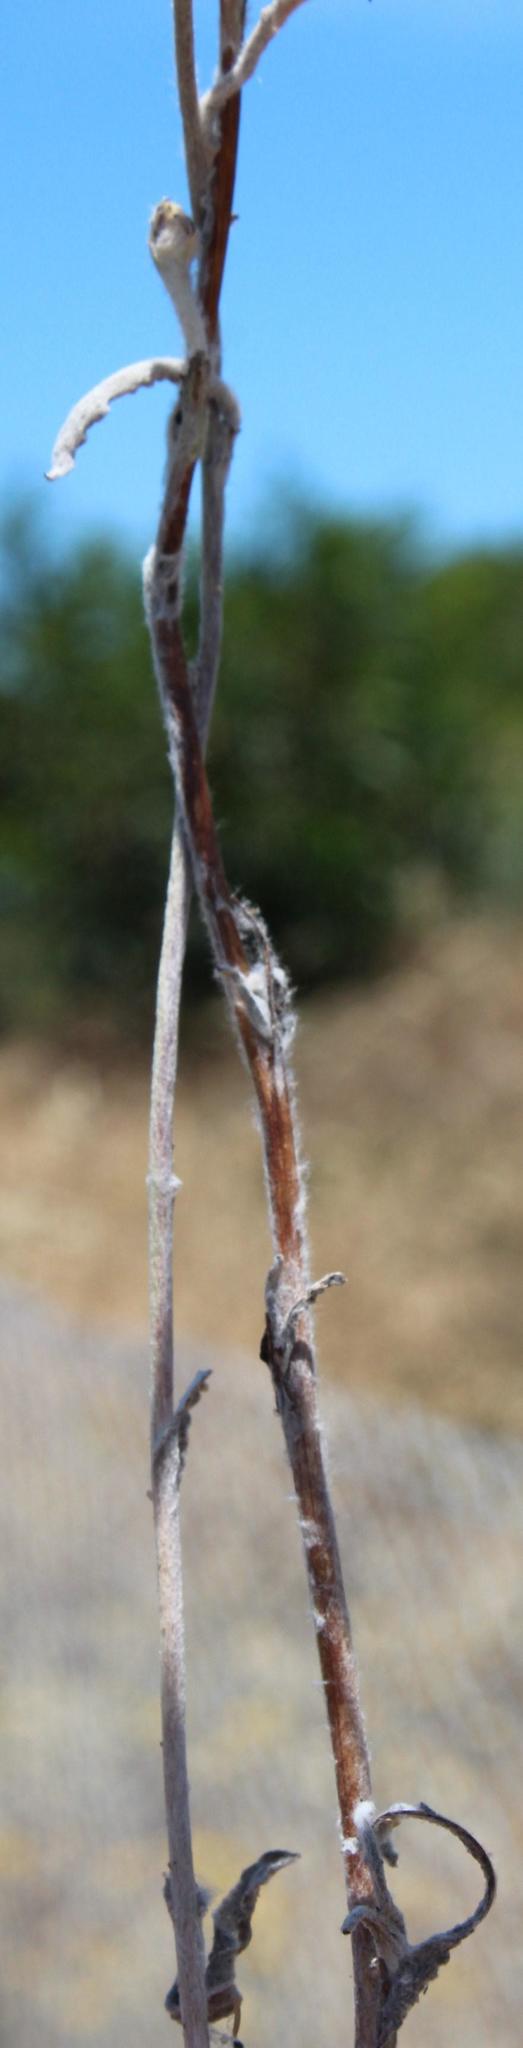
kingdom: Plantae
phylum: Tracheophyta
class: Magnoliopsida
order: Asterales
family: Asteraceae
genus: Helichrysum
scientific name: Helichrysum moeserianum
